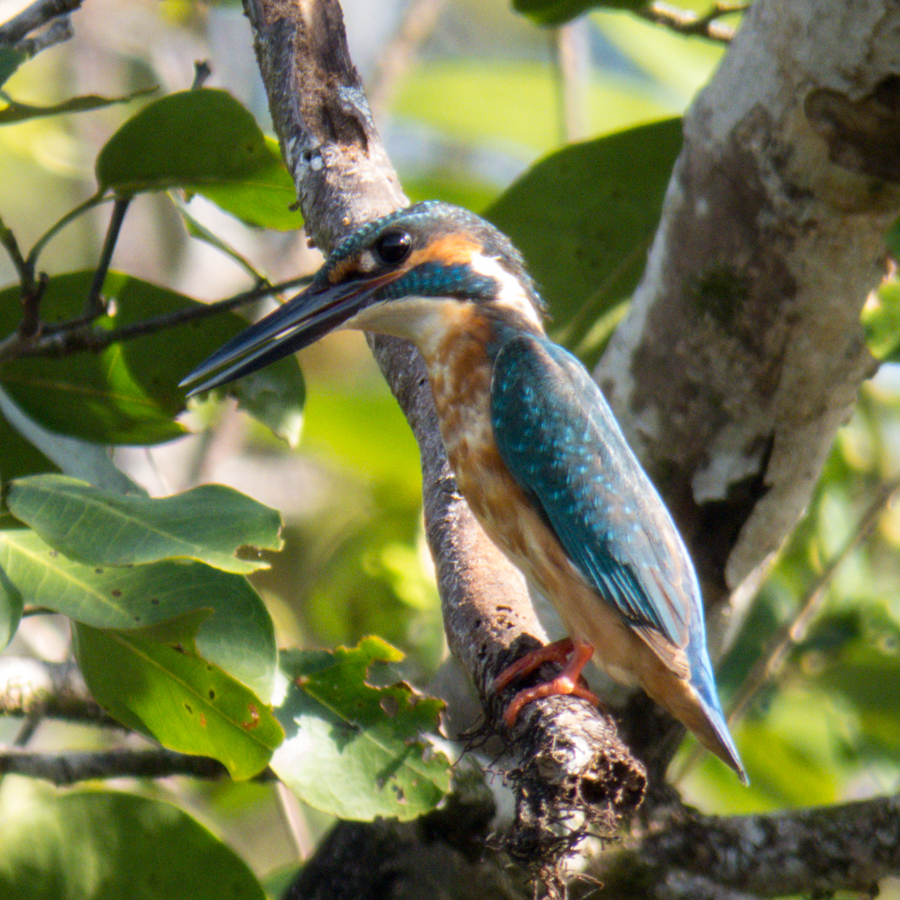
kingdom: Animalia
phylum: Chordata
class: Aves
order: Coraciiformes
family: Alcedinidae
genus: Alcedo
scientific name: Alcedo atthis
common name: Common kingfisher
